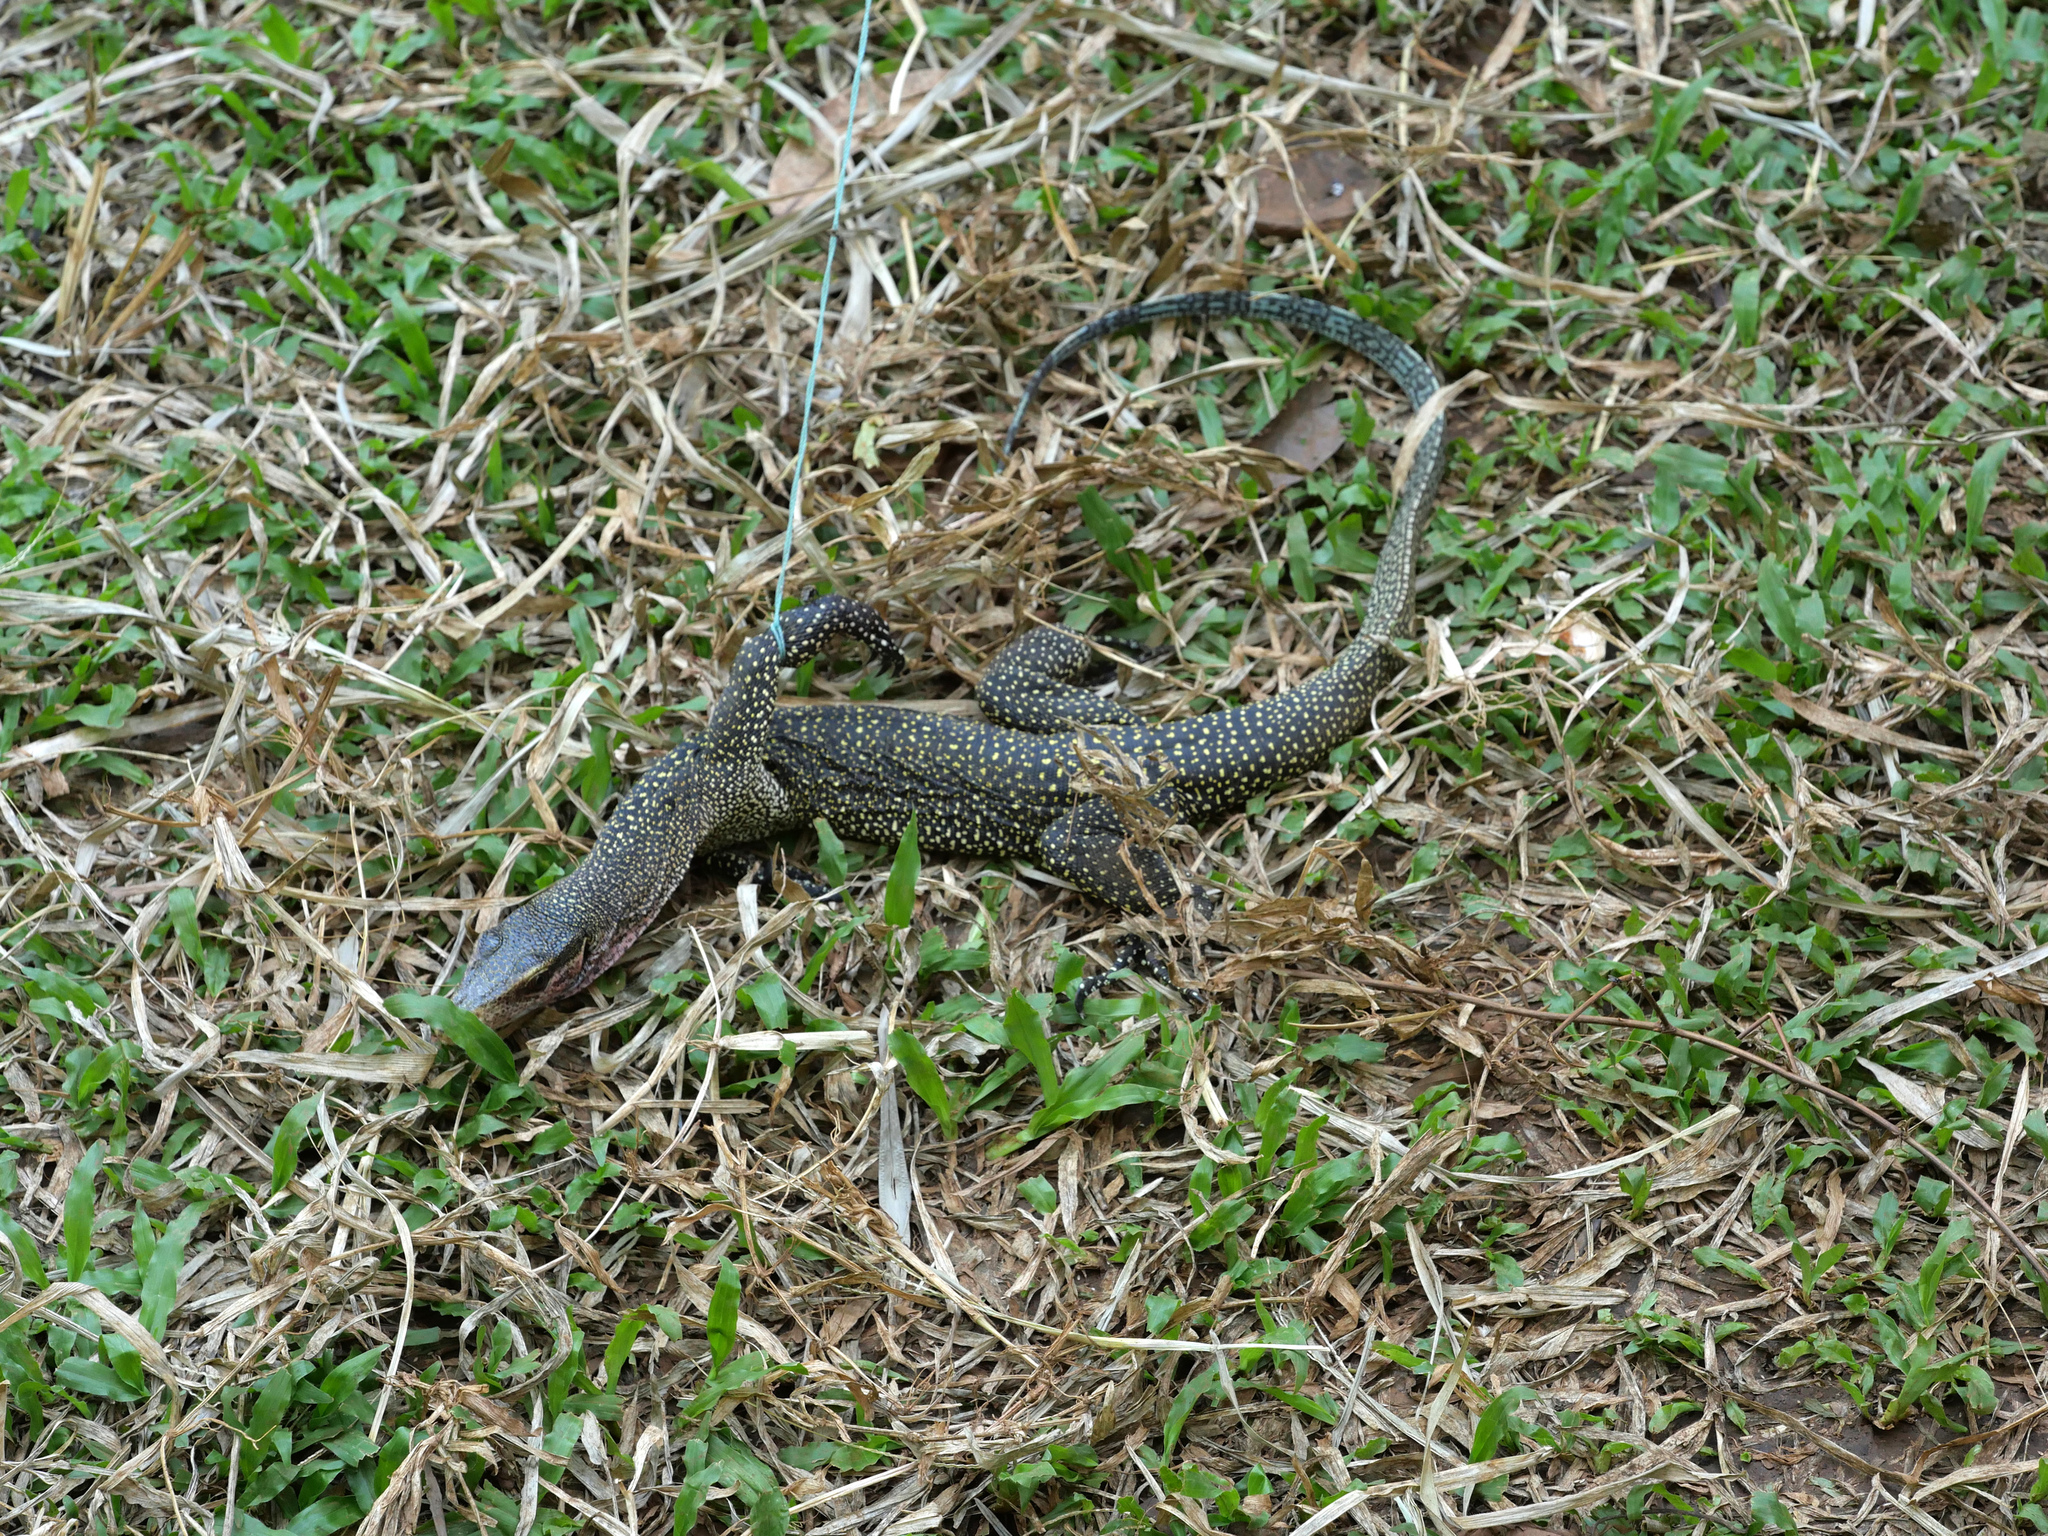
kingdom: Animalia
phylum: Chordata
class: Squamata
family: Varanidae
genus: Varanus
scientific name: Varanus jobiensis
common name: Peach-throated monitor
